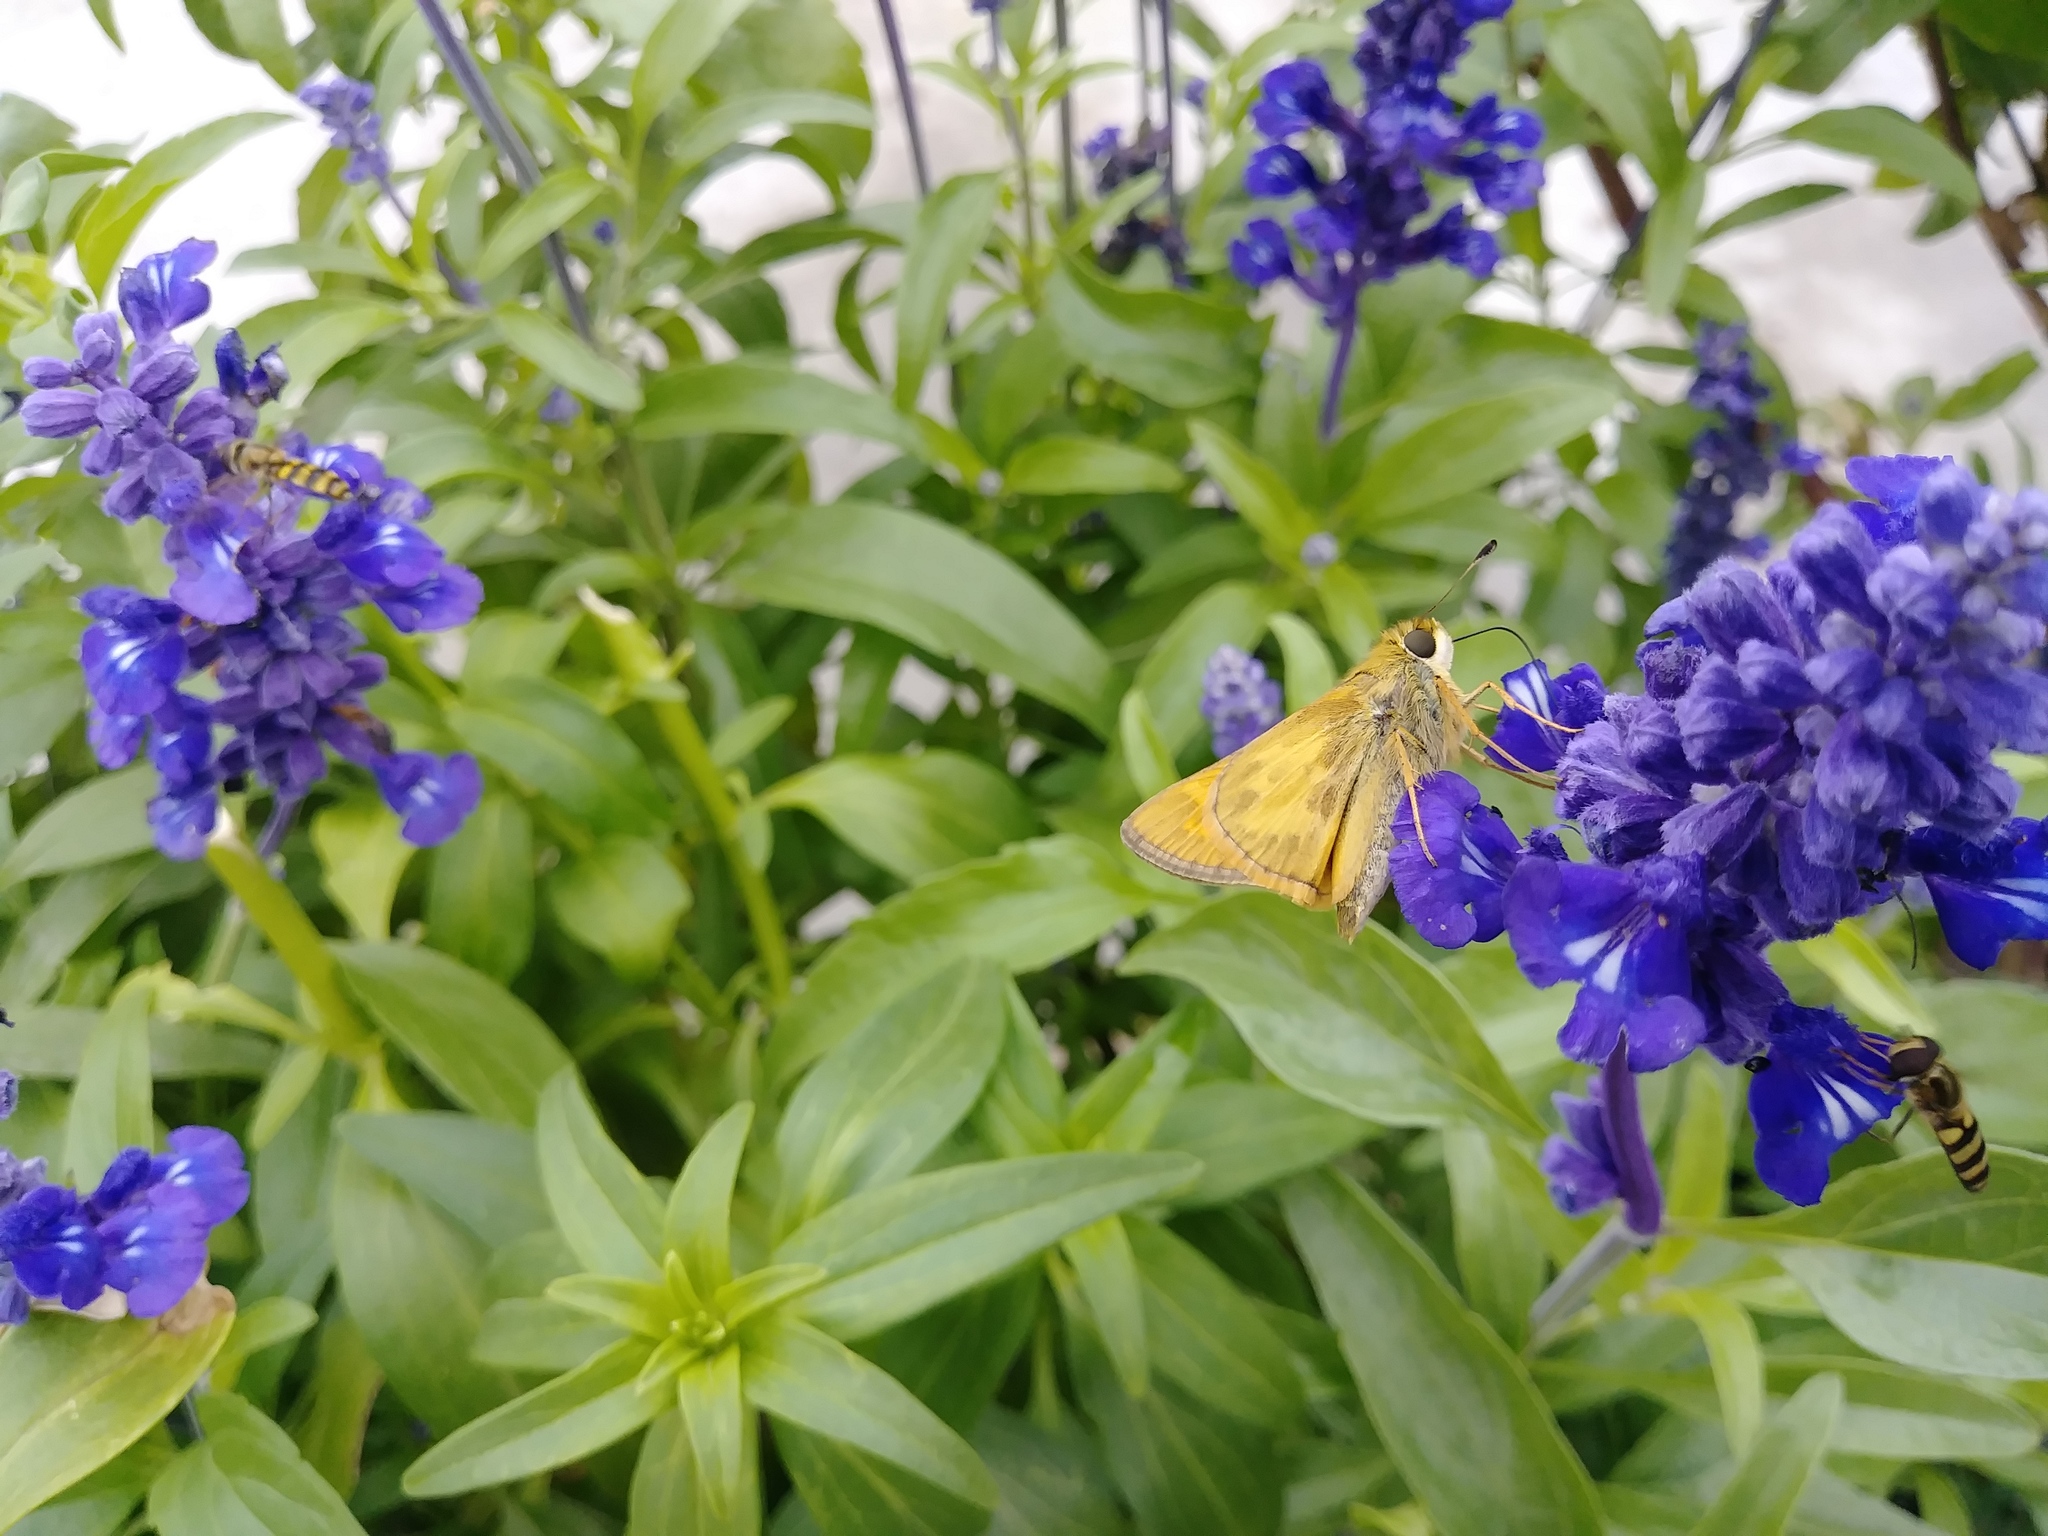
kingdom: Animalia
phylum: Arthropoda
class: Insecta
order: Lepidoptera
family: Hesperiidae
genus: Atalopedes
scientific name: Atalopedes
